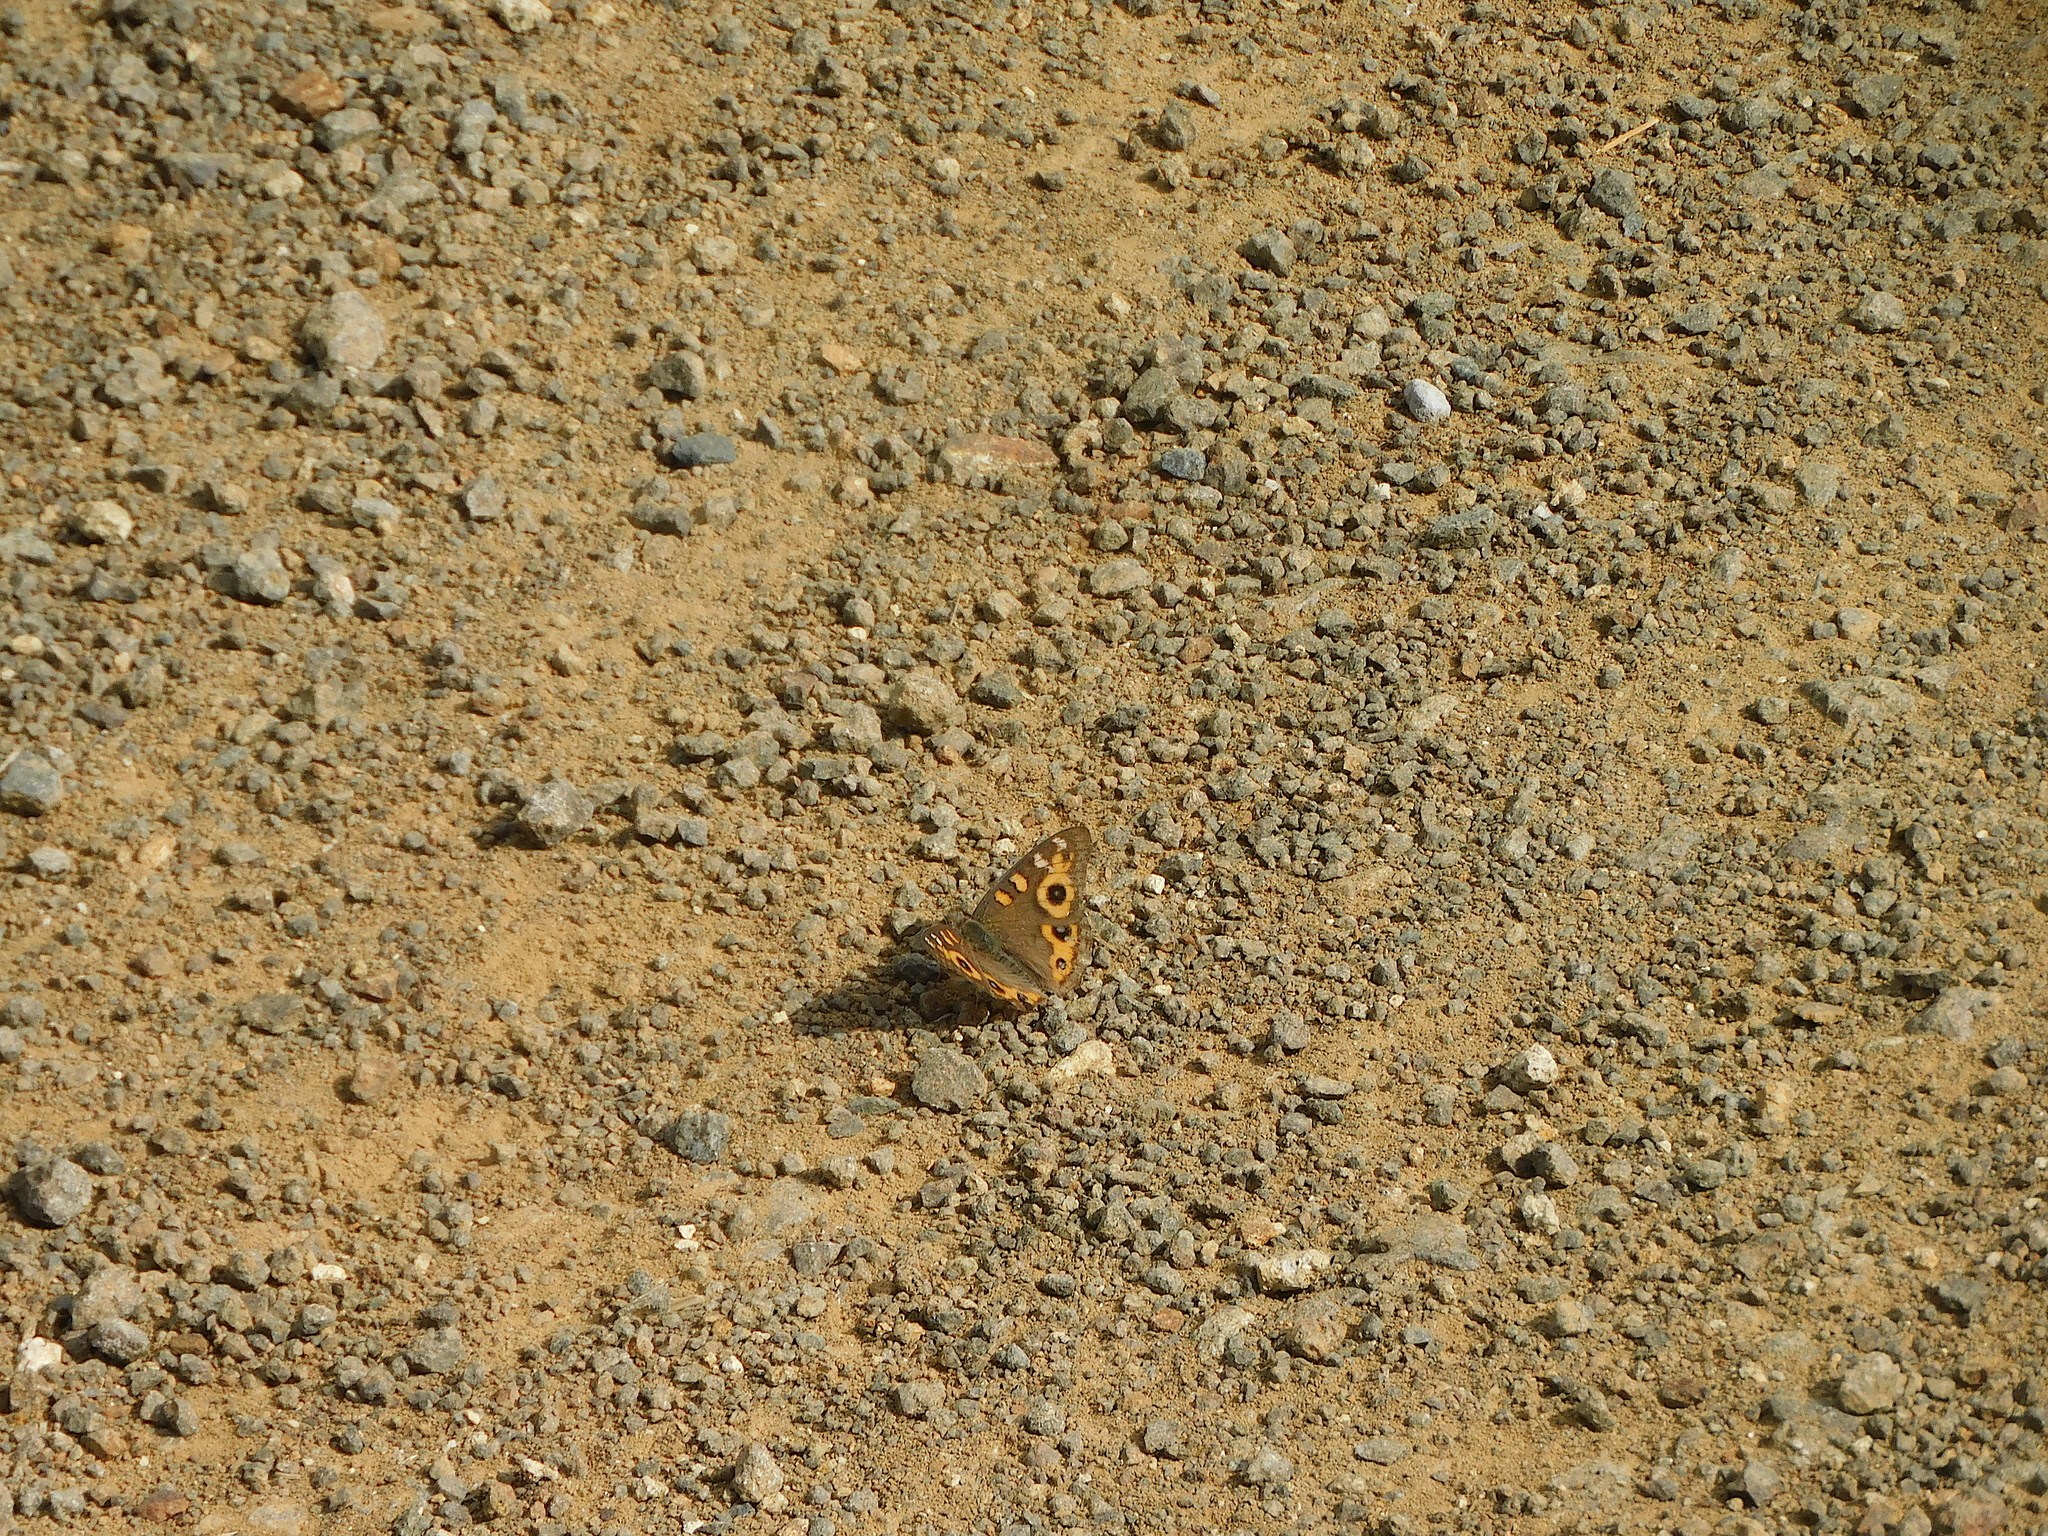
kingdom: Animalia
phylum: Arthropoda
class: Insecta
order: Lepidoptera
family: Nymphalidae
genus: Junonia
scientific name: Junonia villida
